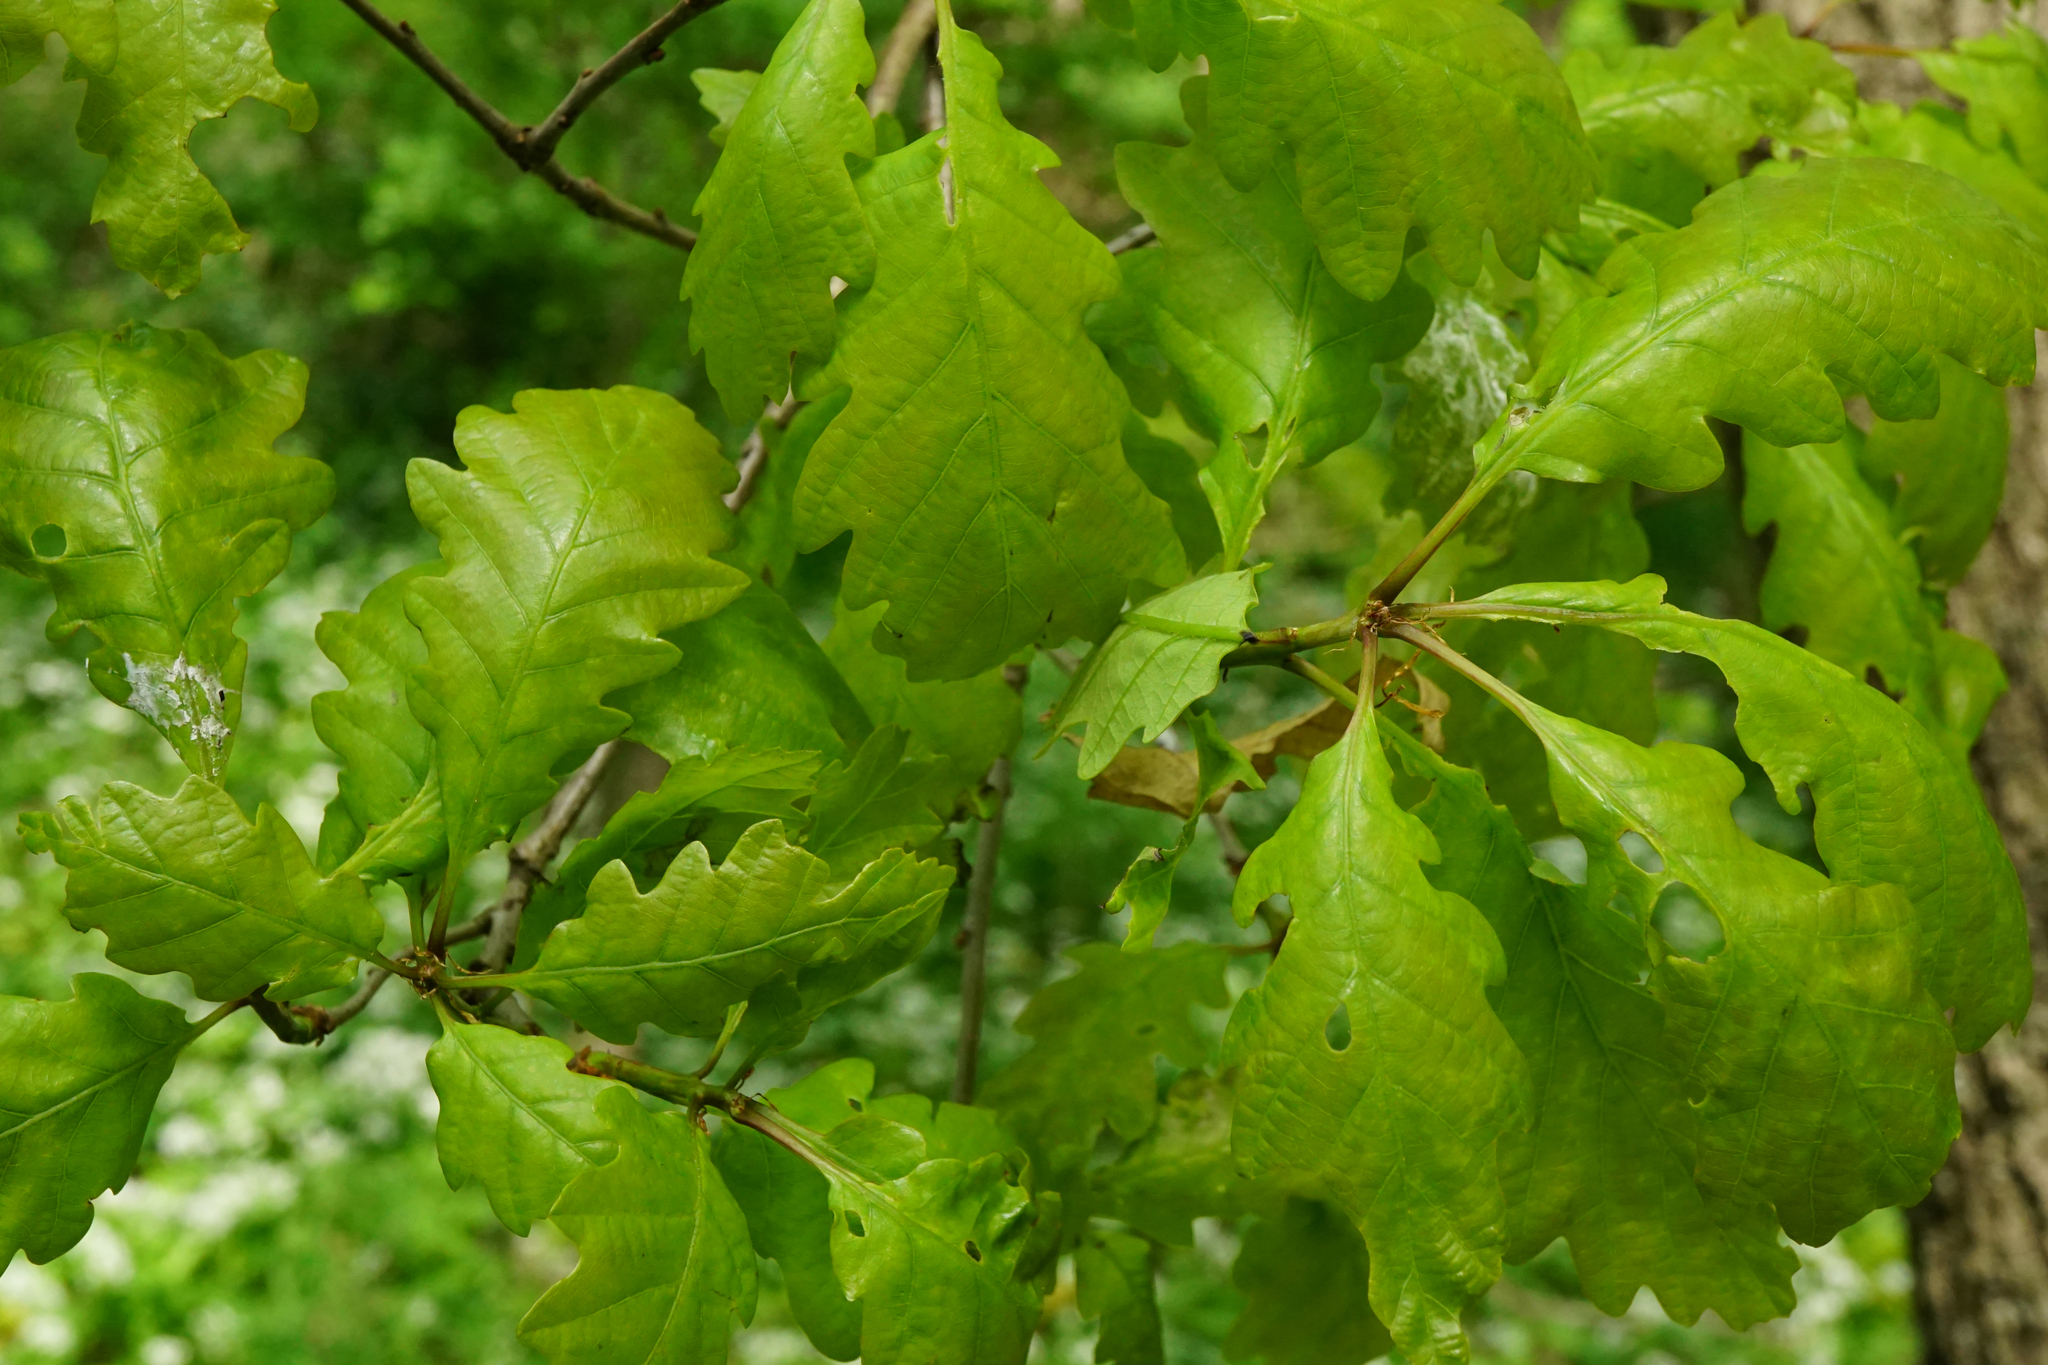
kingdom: Plantae
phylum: Tracheophyta
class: Magnoliopsida
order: Fagales
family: Fagaceae
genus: Quercus
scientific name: Quercus petraea
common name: Sessile oak
